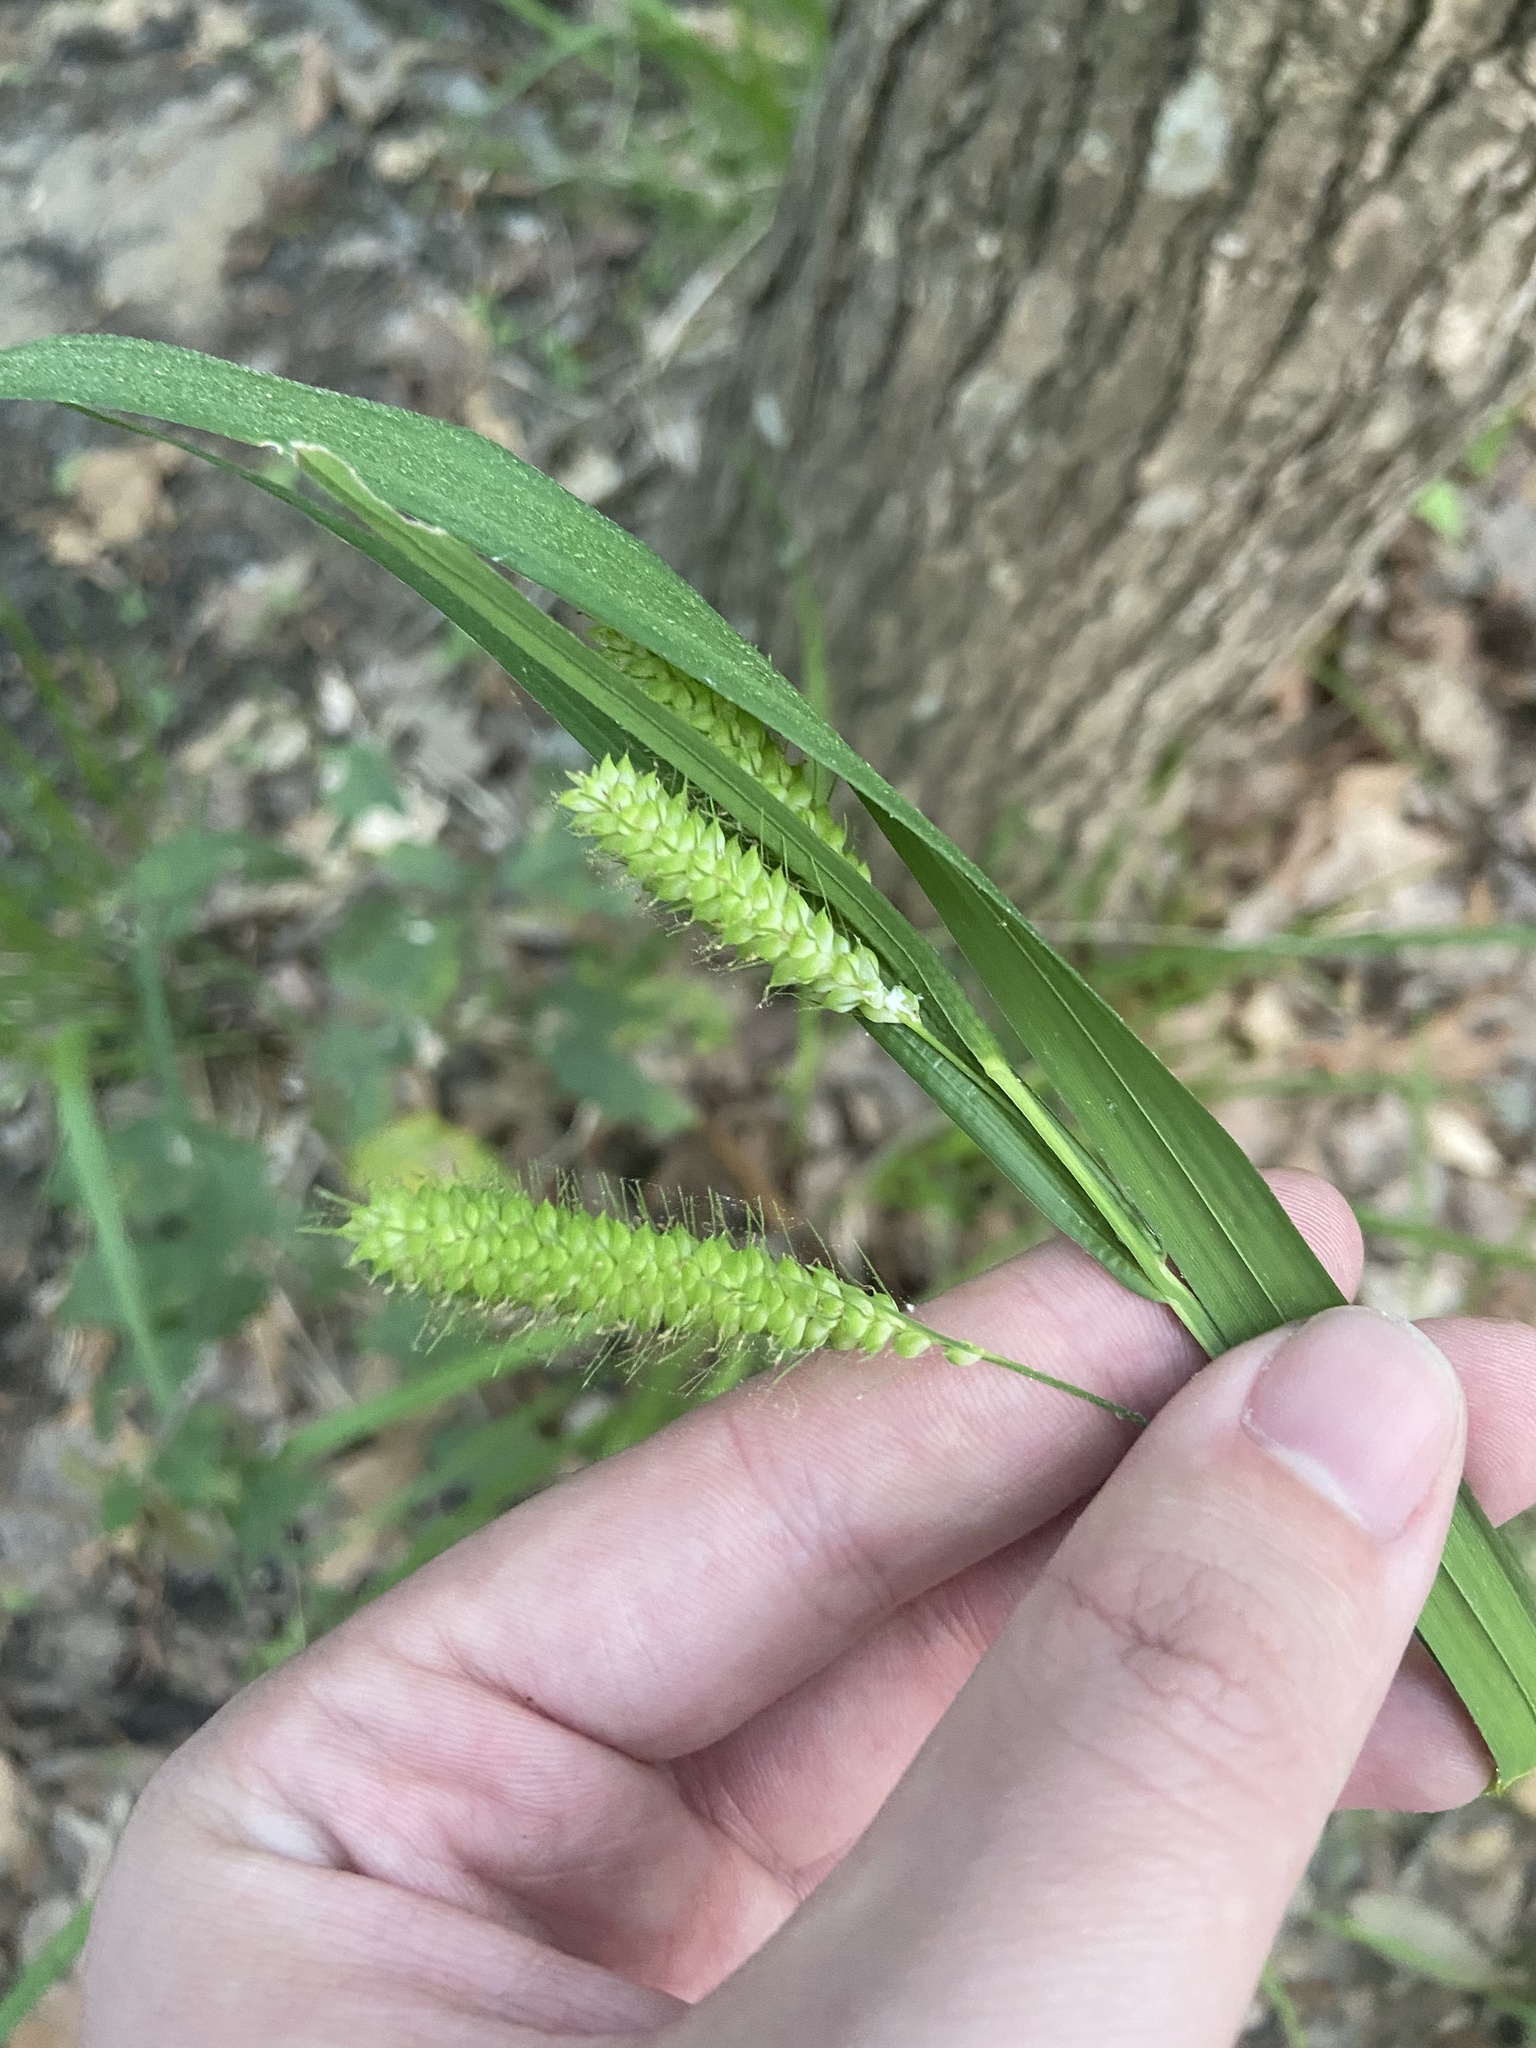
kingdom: Plantae
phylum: Tracheophyta
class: Liliopsida
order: Poales
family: Cyperaceae
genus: Carex
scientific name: Carex crinita
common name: Fringed sedge
